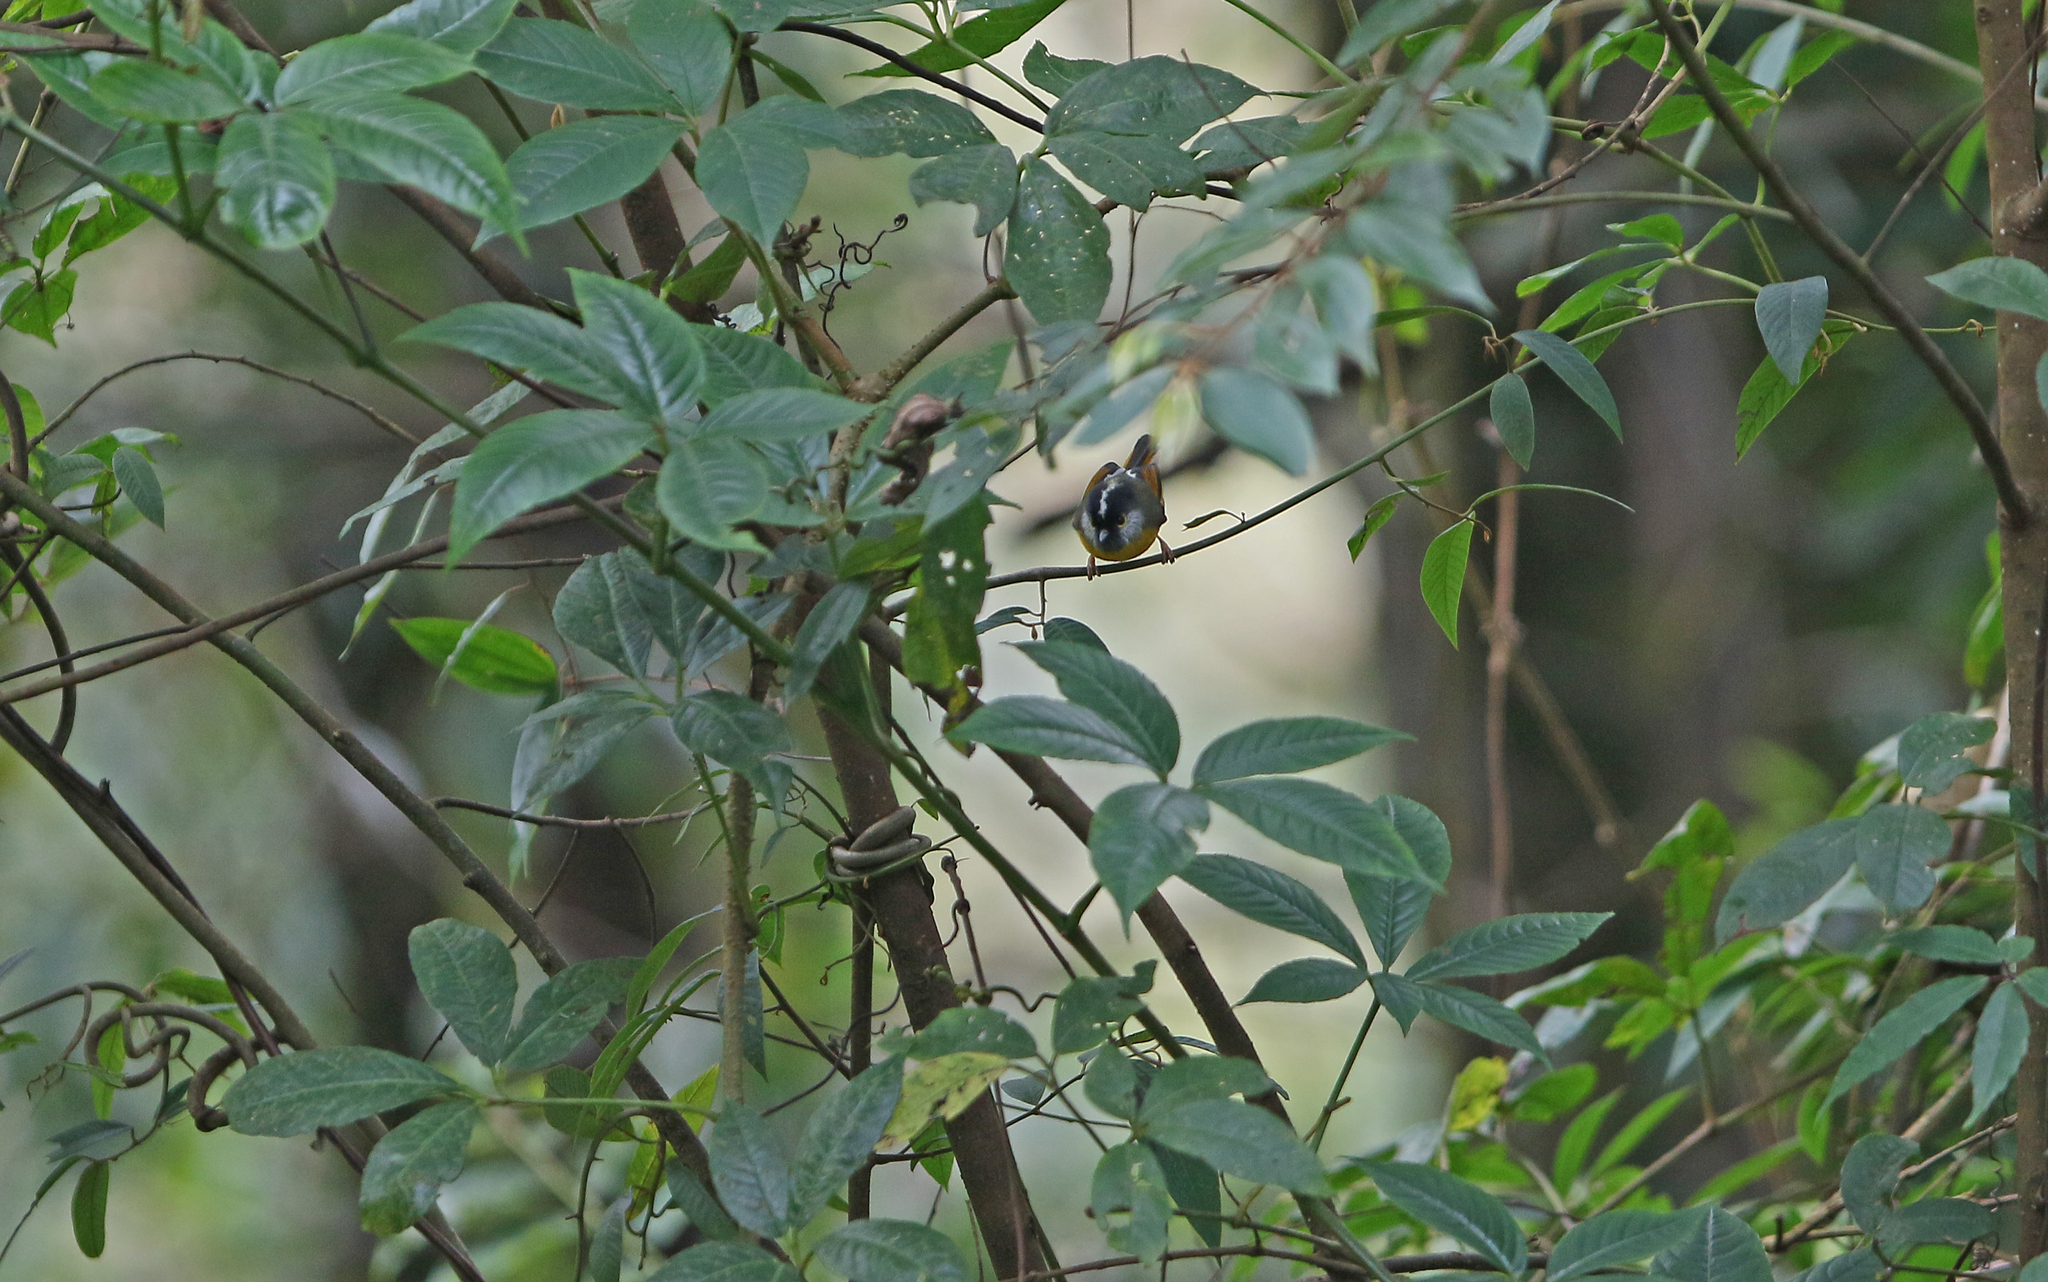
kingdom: Animalia
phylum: Chordata
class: Aves
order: Passeriformes
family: Sylviidae
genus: Lioparus
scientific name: Lioparus chrysotis
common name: Golden-breasted fulvetta
